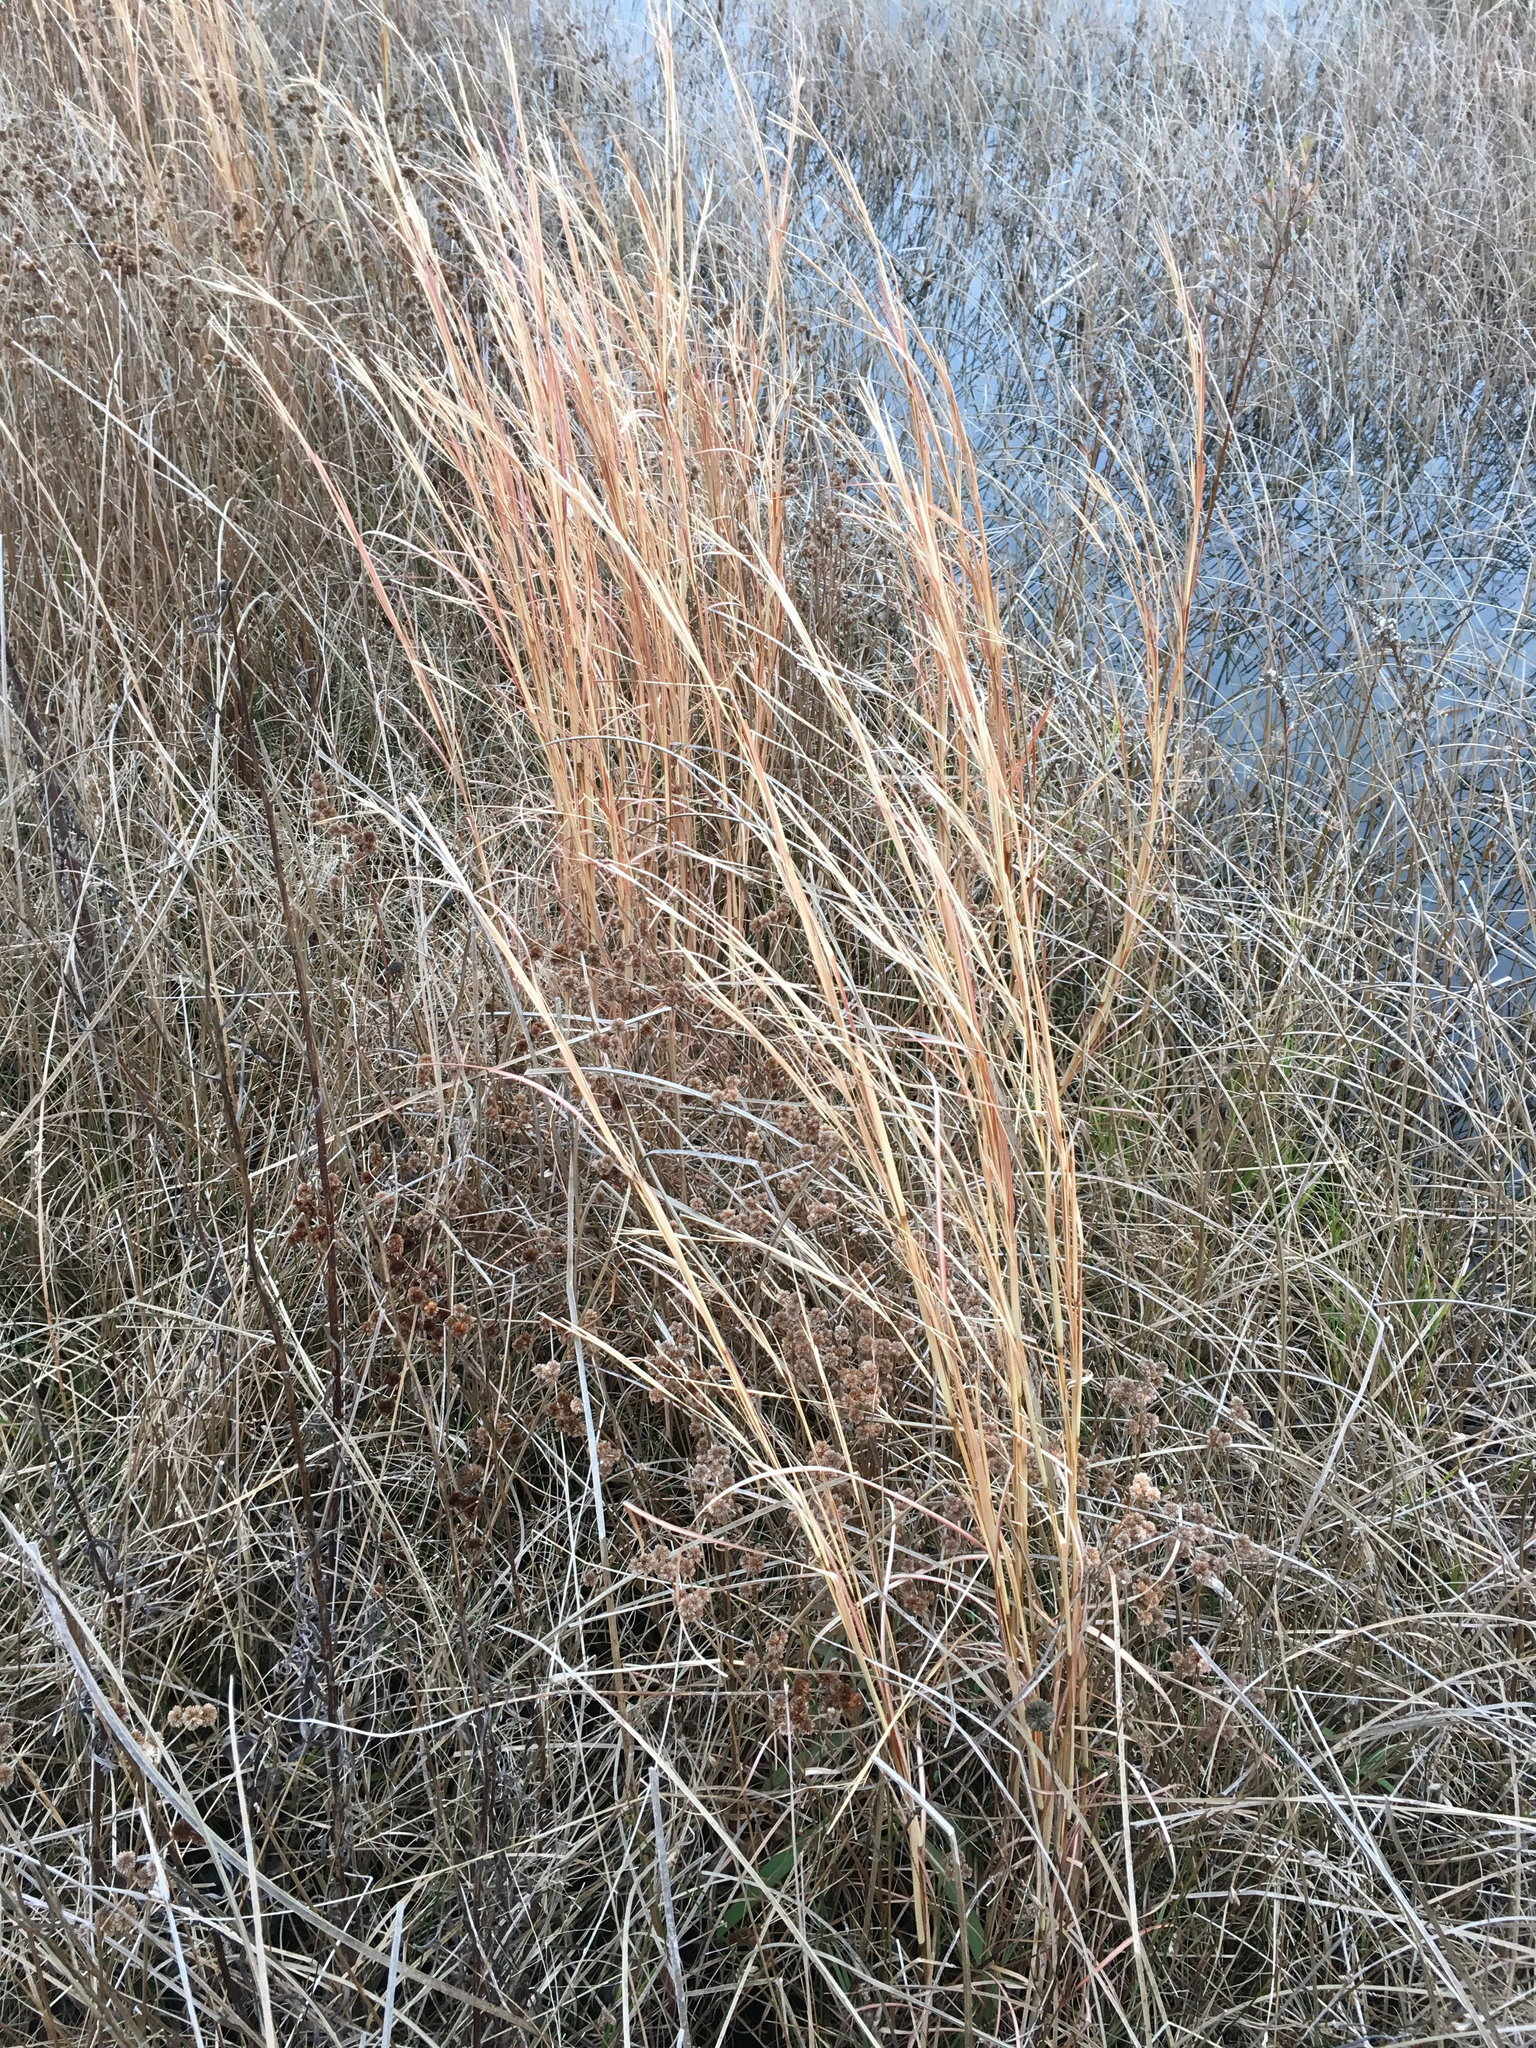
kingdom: Plantae
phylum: Tracheophyta
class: Liliopsida
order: Poales
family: Poaceae
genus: Andropogon
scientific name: Andropogon virginicus
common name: Broomsedge bluestem
